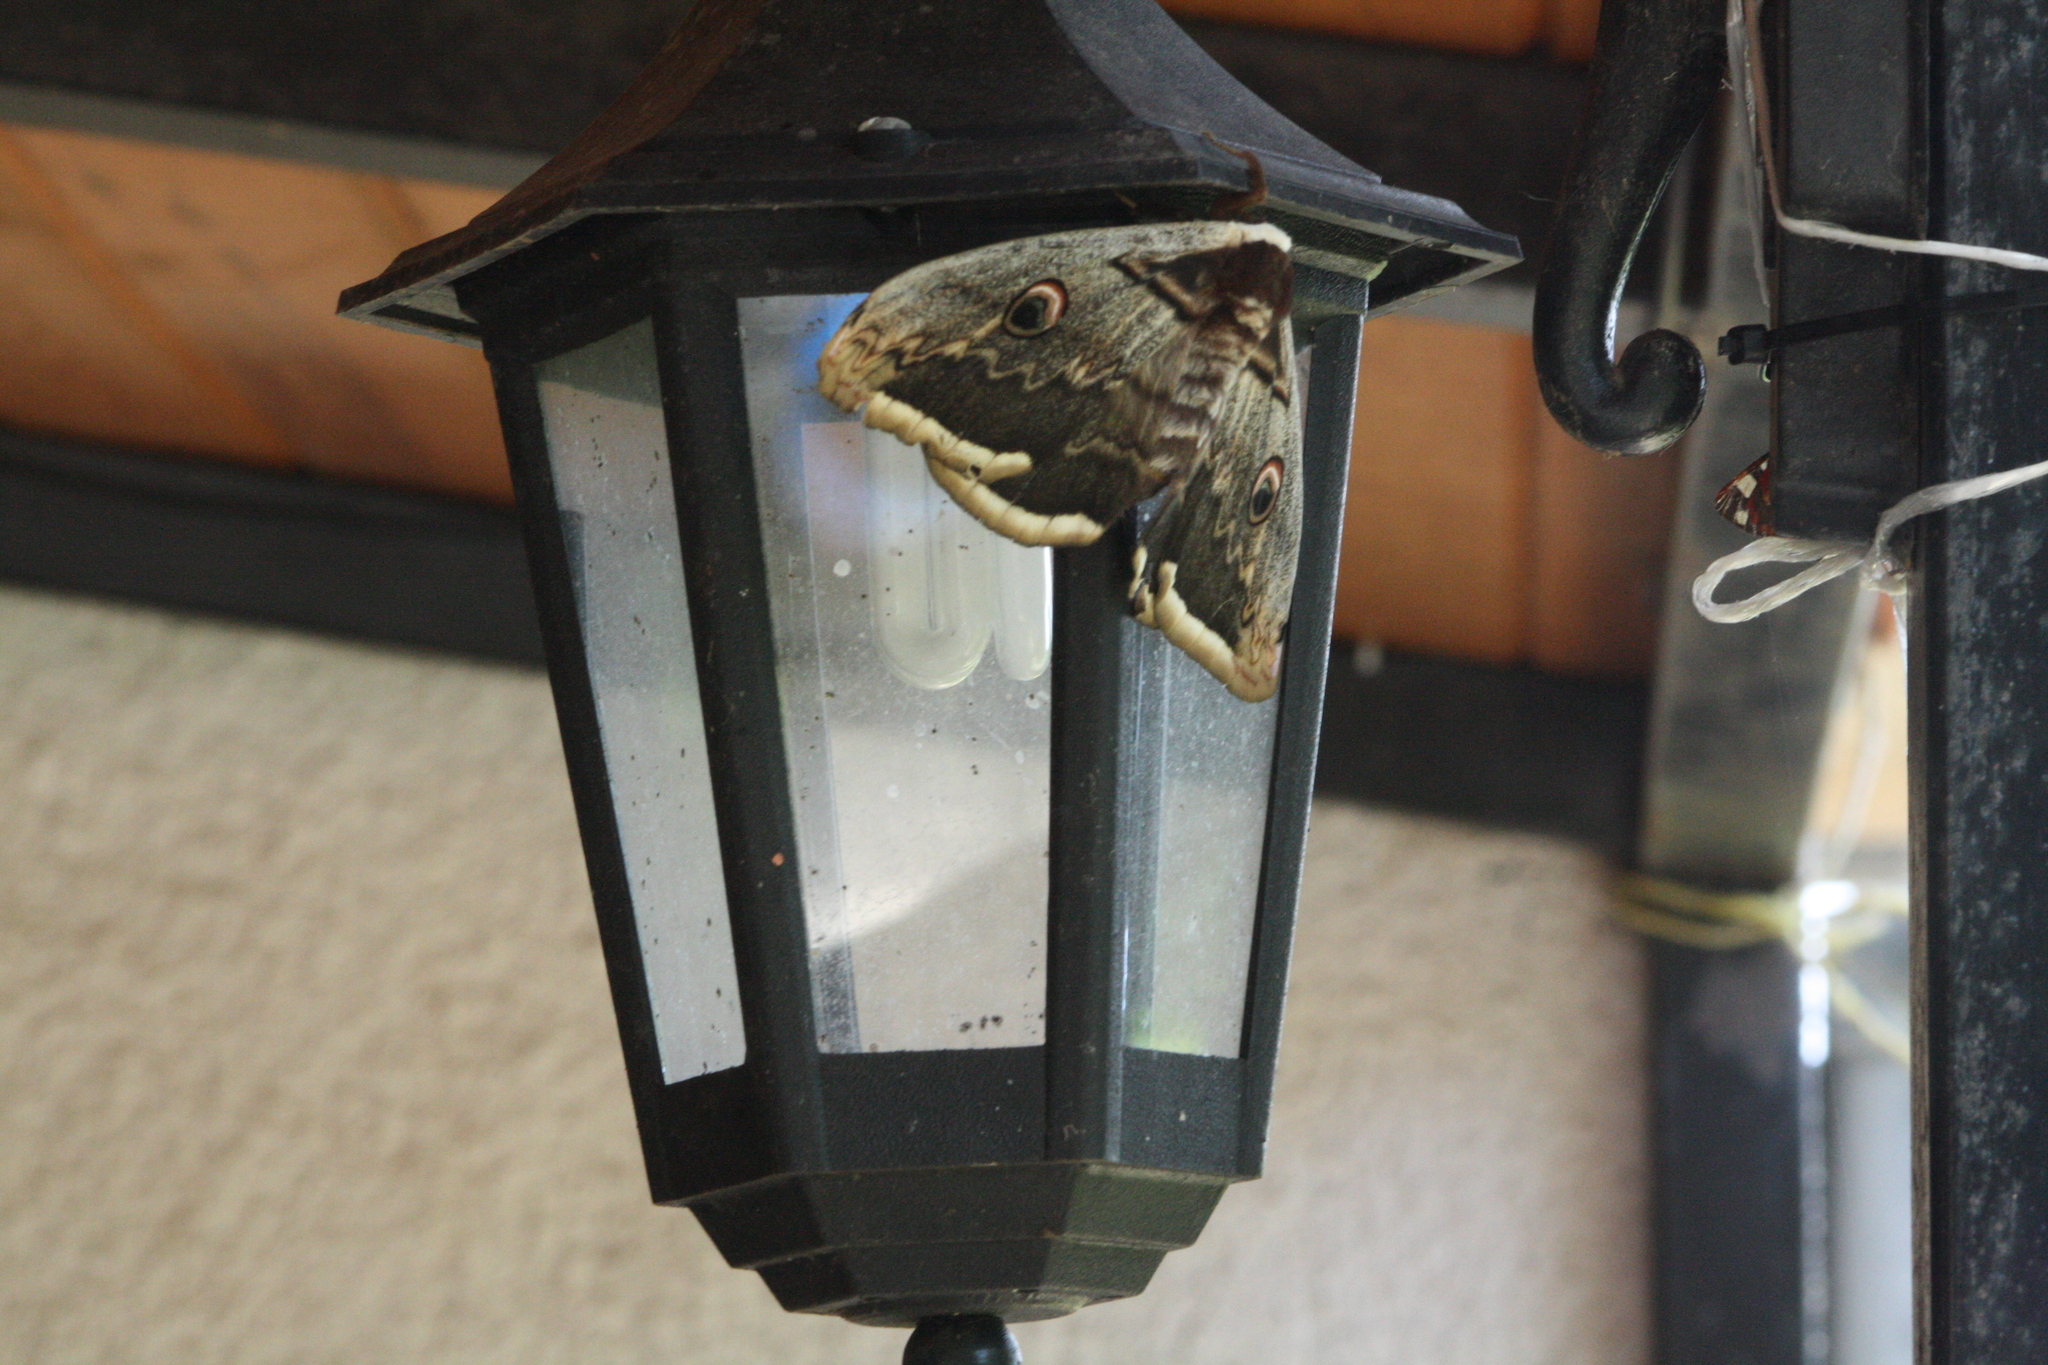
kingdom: Animalia
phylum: Arthropoda
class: Insecta
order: Lepidoptera
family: Saturniidae
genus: Saturnia
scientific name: Saturnia pyri
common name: Great peacock moth
